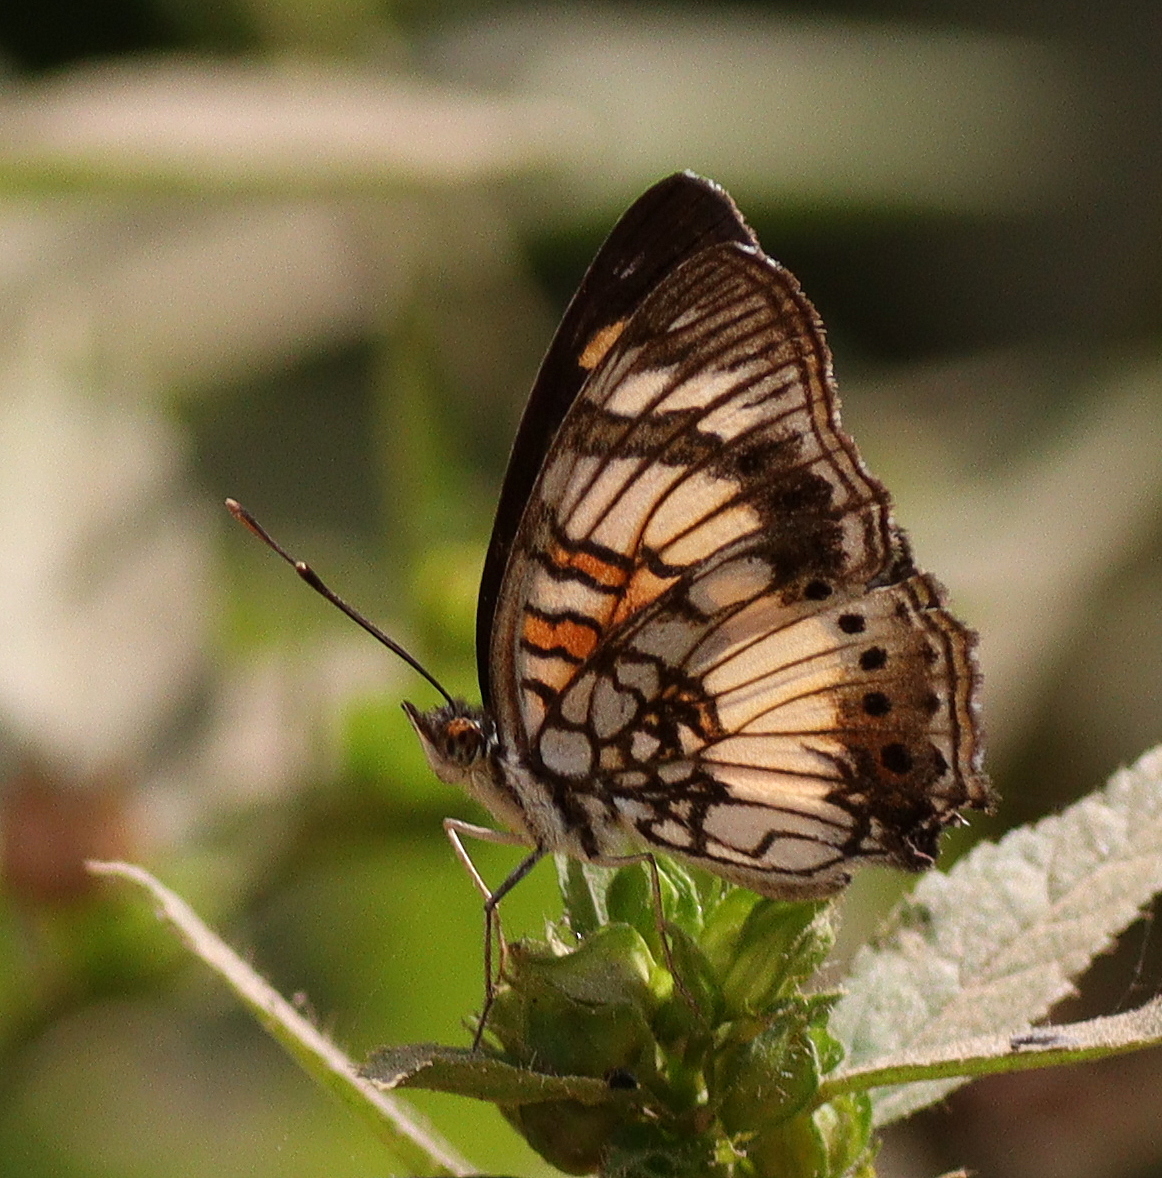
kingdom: Animalia
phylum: Arthropoda
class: Insecta
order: Lepidoptera
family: Nymphalidae
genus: Junonia
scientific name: Junonia sophia
